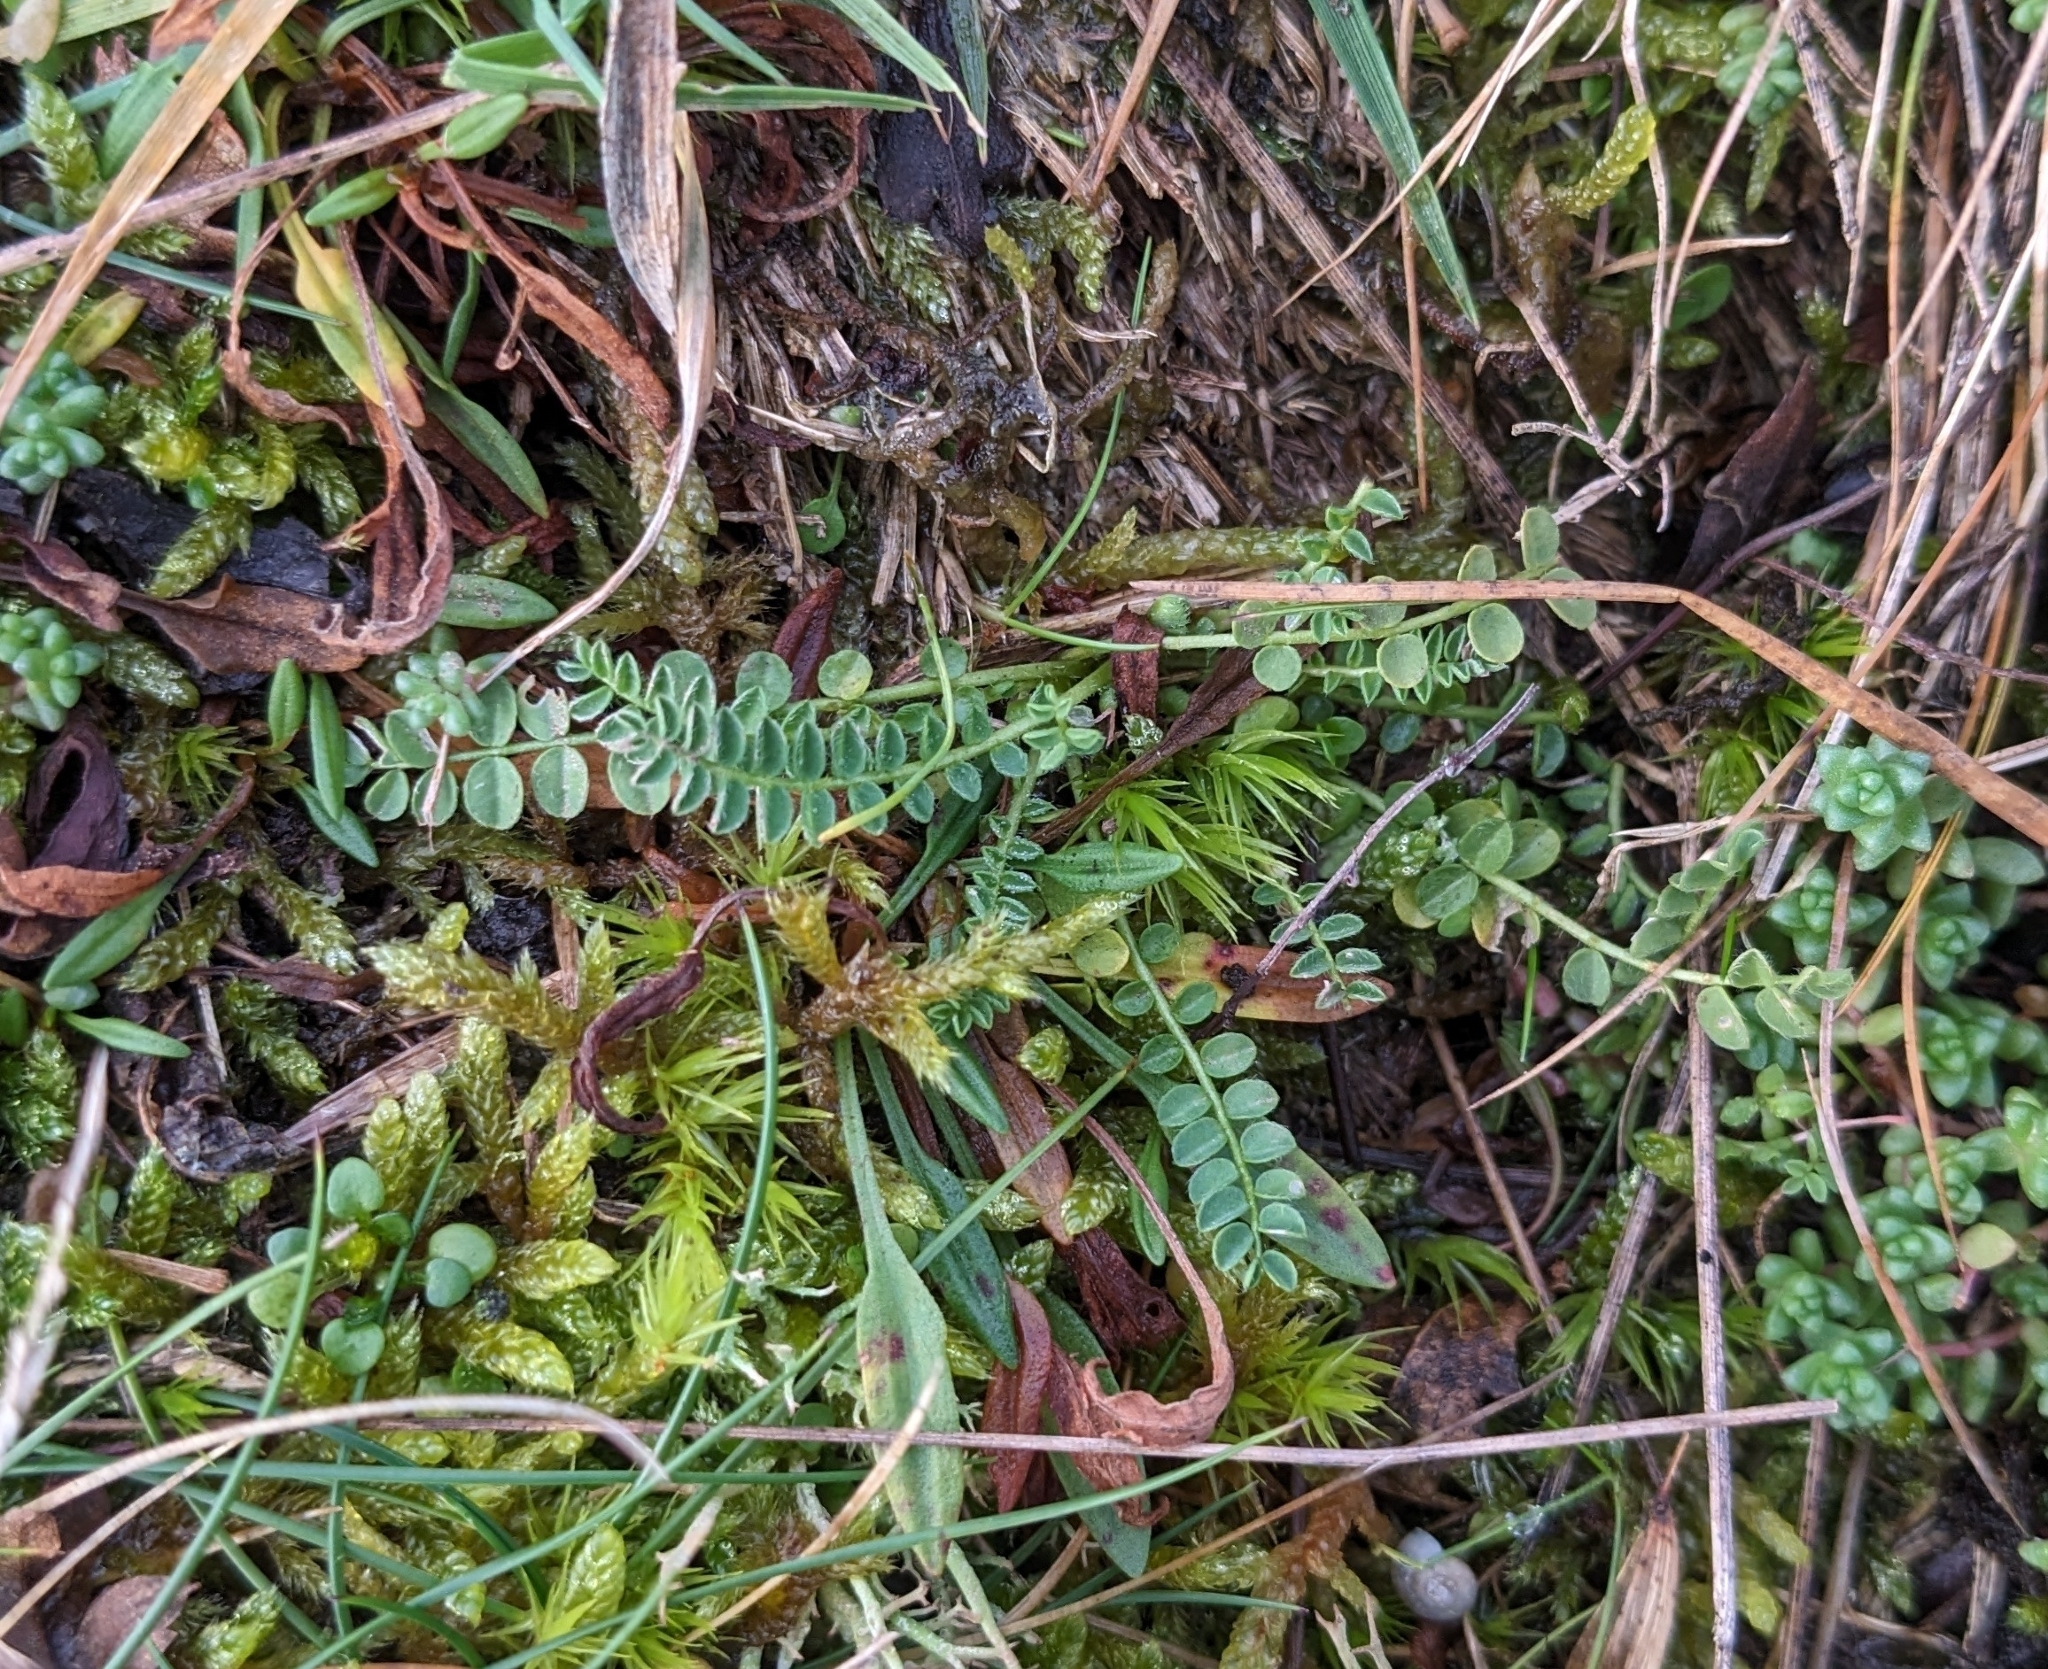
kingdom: Plantae
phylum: Tracheophyta
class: Magnoliopsida
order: Fabales
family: Fabaceae
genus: Ornithopus
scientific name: Ornithopus perpusillus
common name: Bird's-foot
